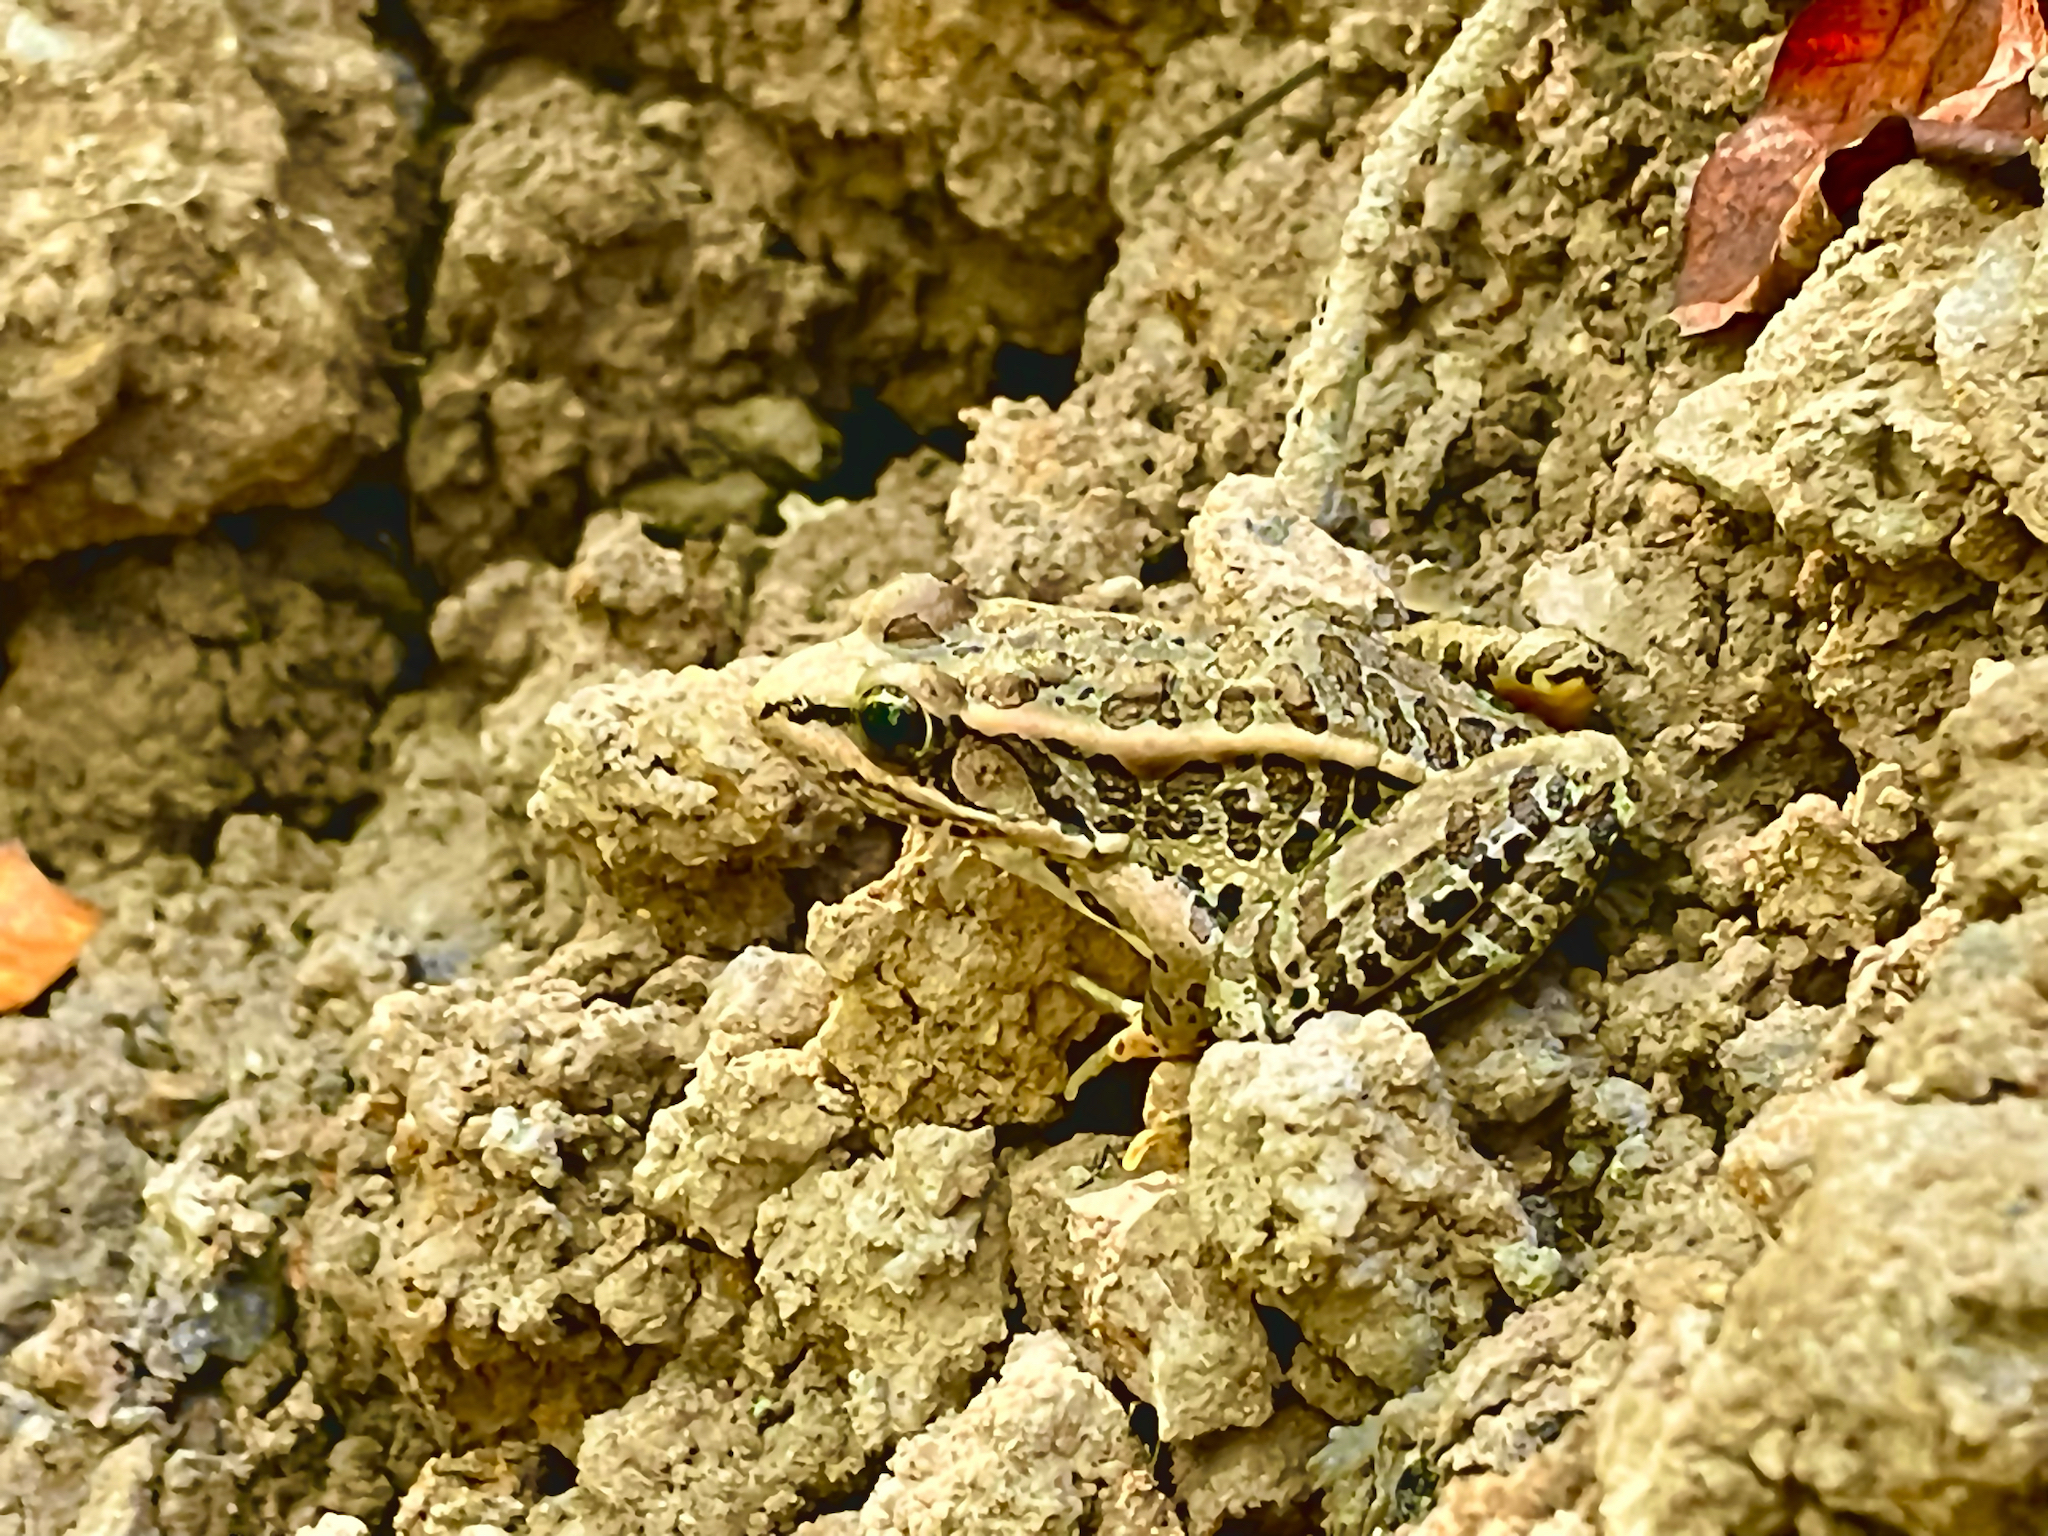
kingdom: Animalia
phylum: Chordata
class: Amphibia
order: Anura
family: Ranidae
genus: Lithobates
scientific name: Lithobates palustris
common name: Pickerel frog
